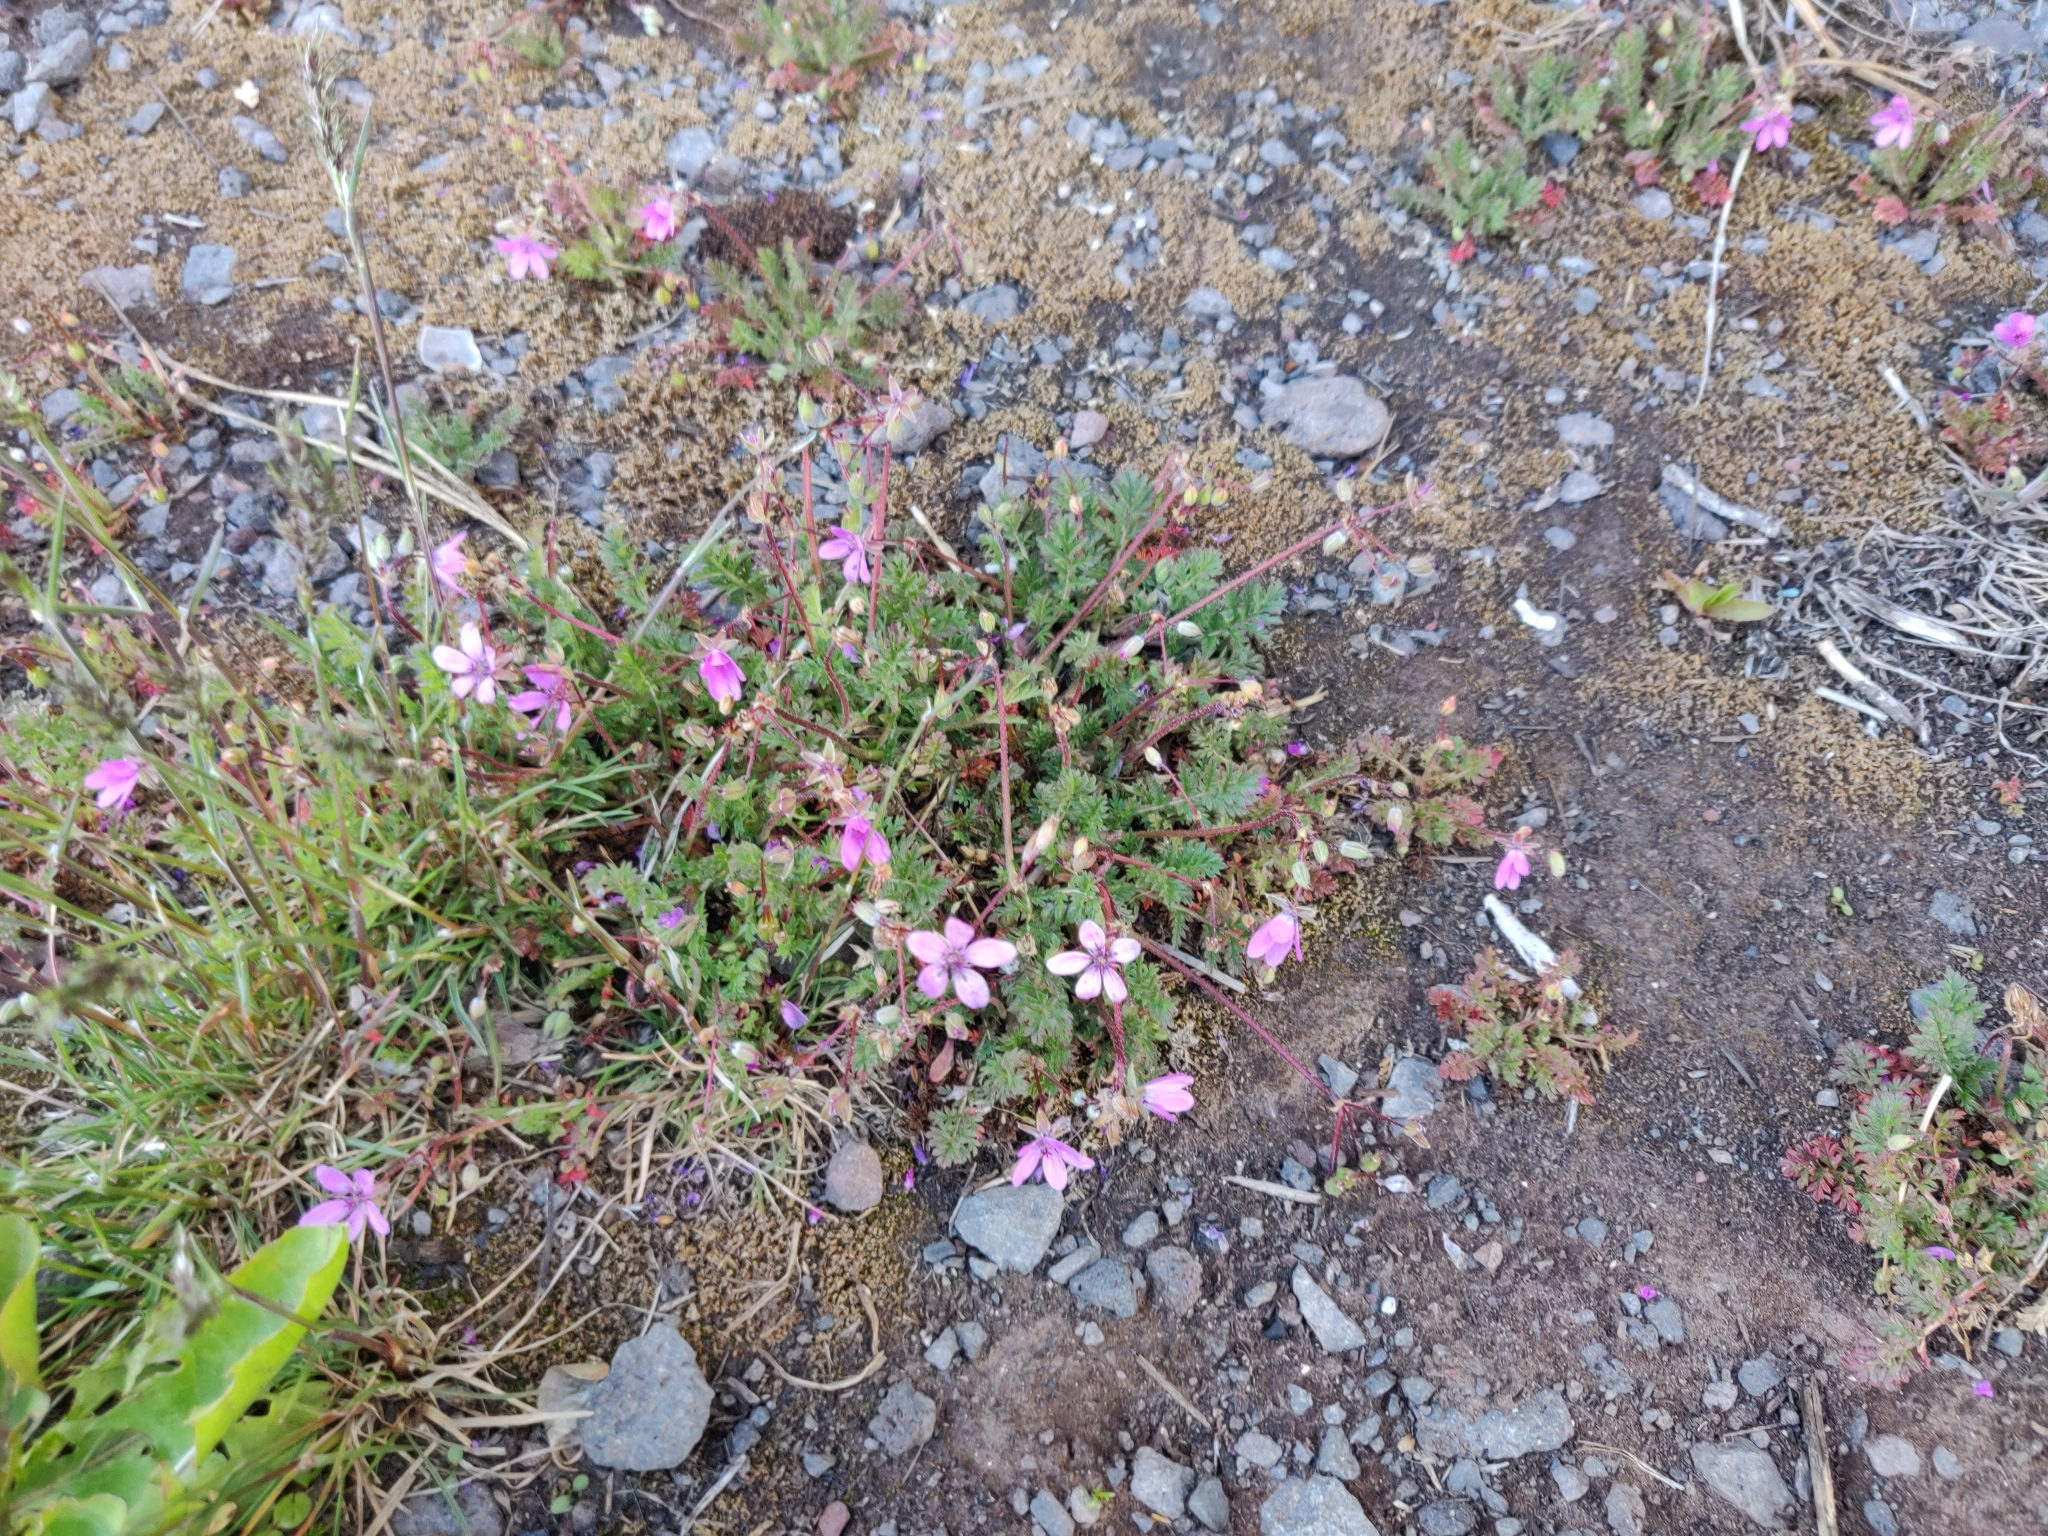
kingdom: Plantae
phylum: Tracheophyta
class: Magnoliopsida
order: Geraniales
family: Geraniaceae
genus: Erodium
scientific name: Erodium cicutarium
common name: Common stork's-bill
